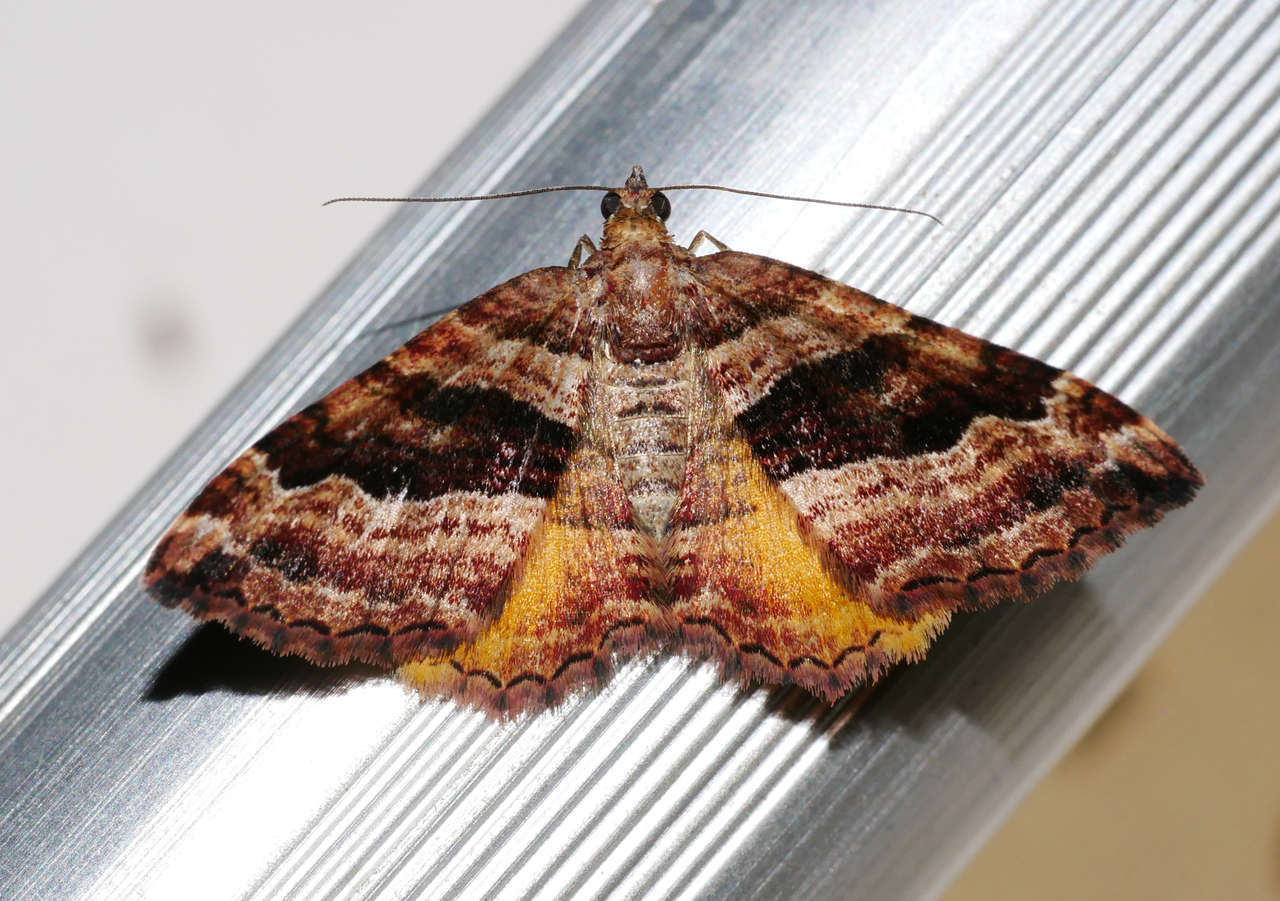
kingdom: Animalia
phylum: Arthropoda
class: Insecta
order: Lepidoptera
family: Geometridae
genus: Chrysolarentia
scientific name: Chrysolarentia cydalima
